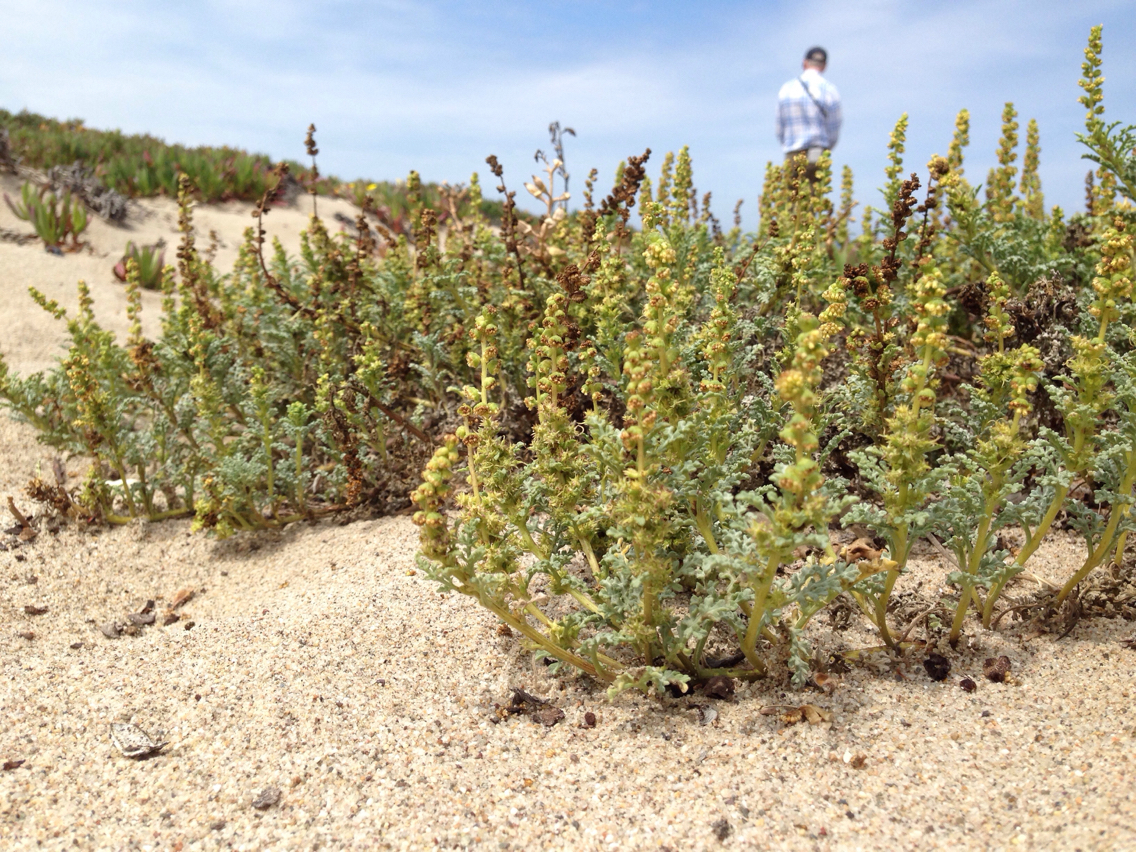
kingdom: Plantae
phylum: Tracheophyta
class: Magnoliopsida
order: Asterales
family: Asteraceae
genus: Ambrosia
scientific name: Ambrosia chamissonis
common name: Beachbur
